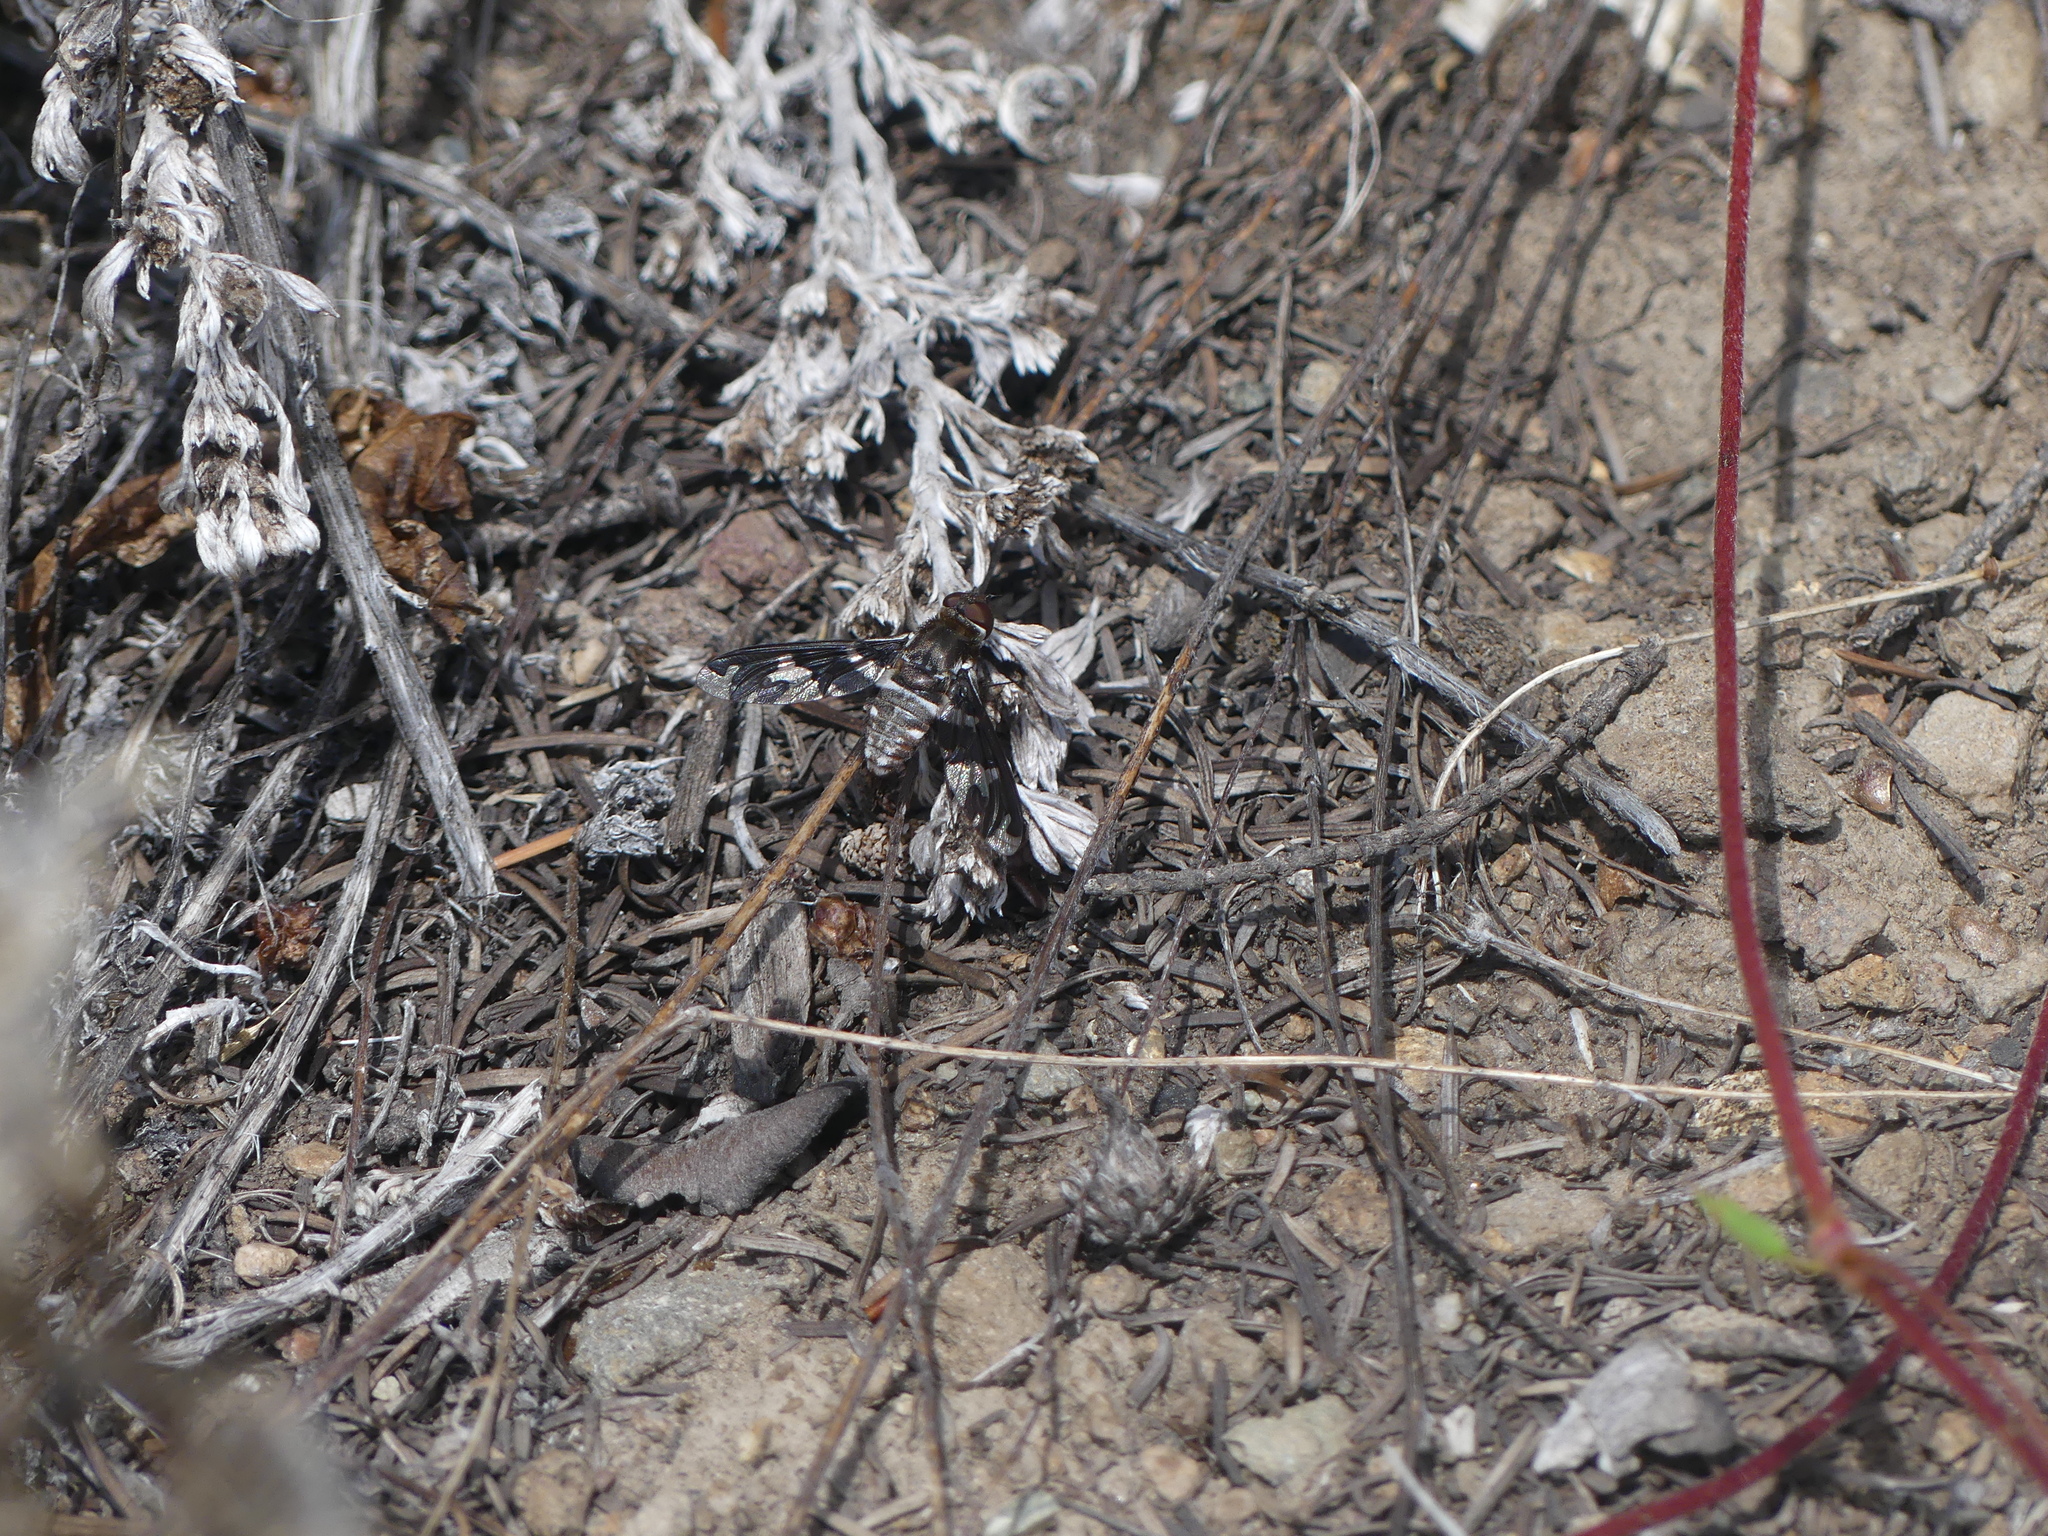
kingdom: Plantae
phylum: Tracheophyta
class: Magnoliopsida
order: Rosales
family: Rosaceae
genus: Fragaria
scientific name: Fragaria virginiana
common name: Thickleaved wild strawberry
